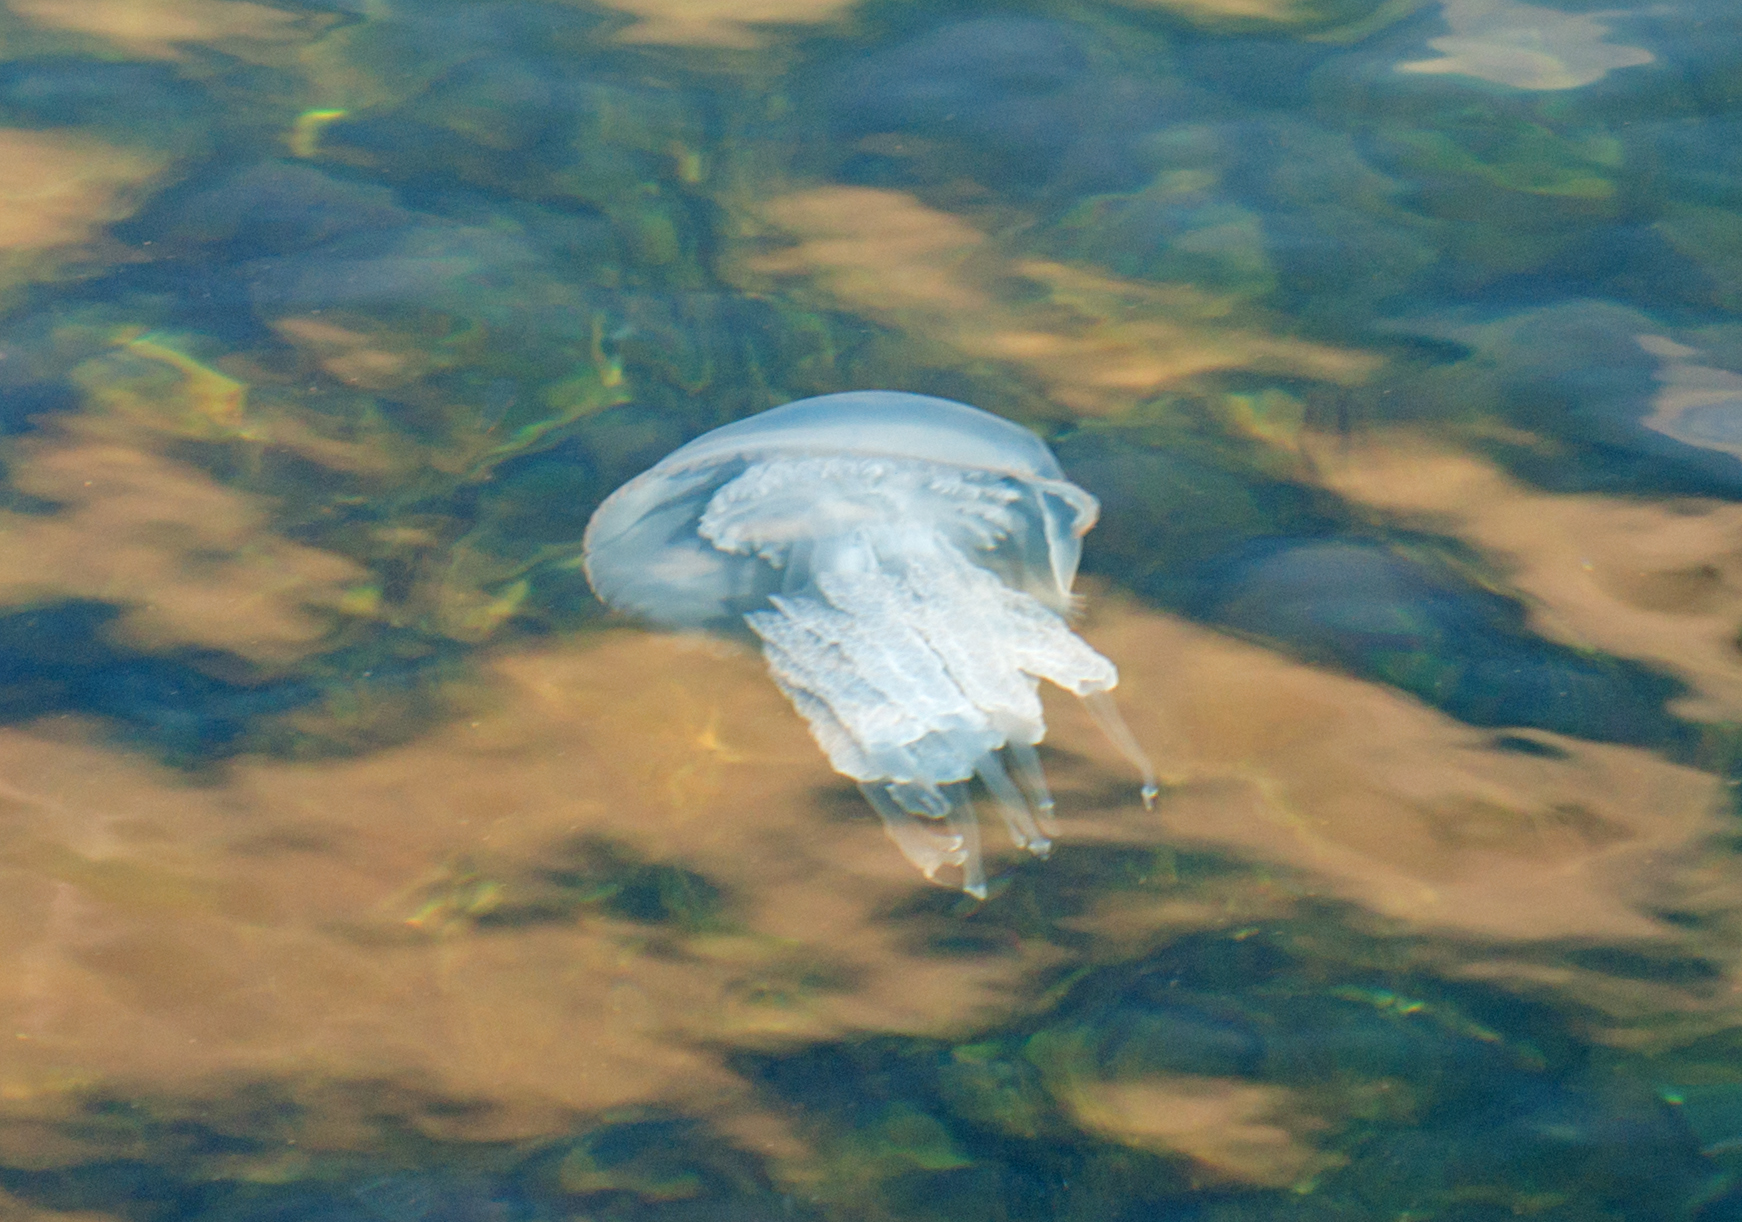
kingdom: Animalia
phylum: Cnidaria
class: Scyphozoa
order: Rhizostomeae
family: Rhizostomatidae
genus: Rhizostoma
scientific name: Rhizostoma pulmo
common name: Barrel jellyfish
